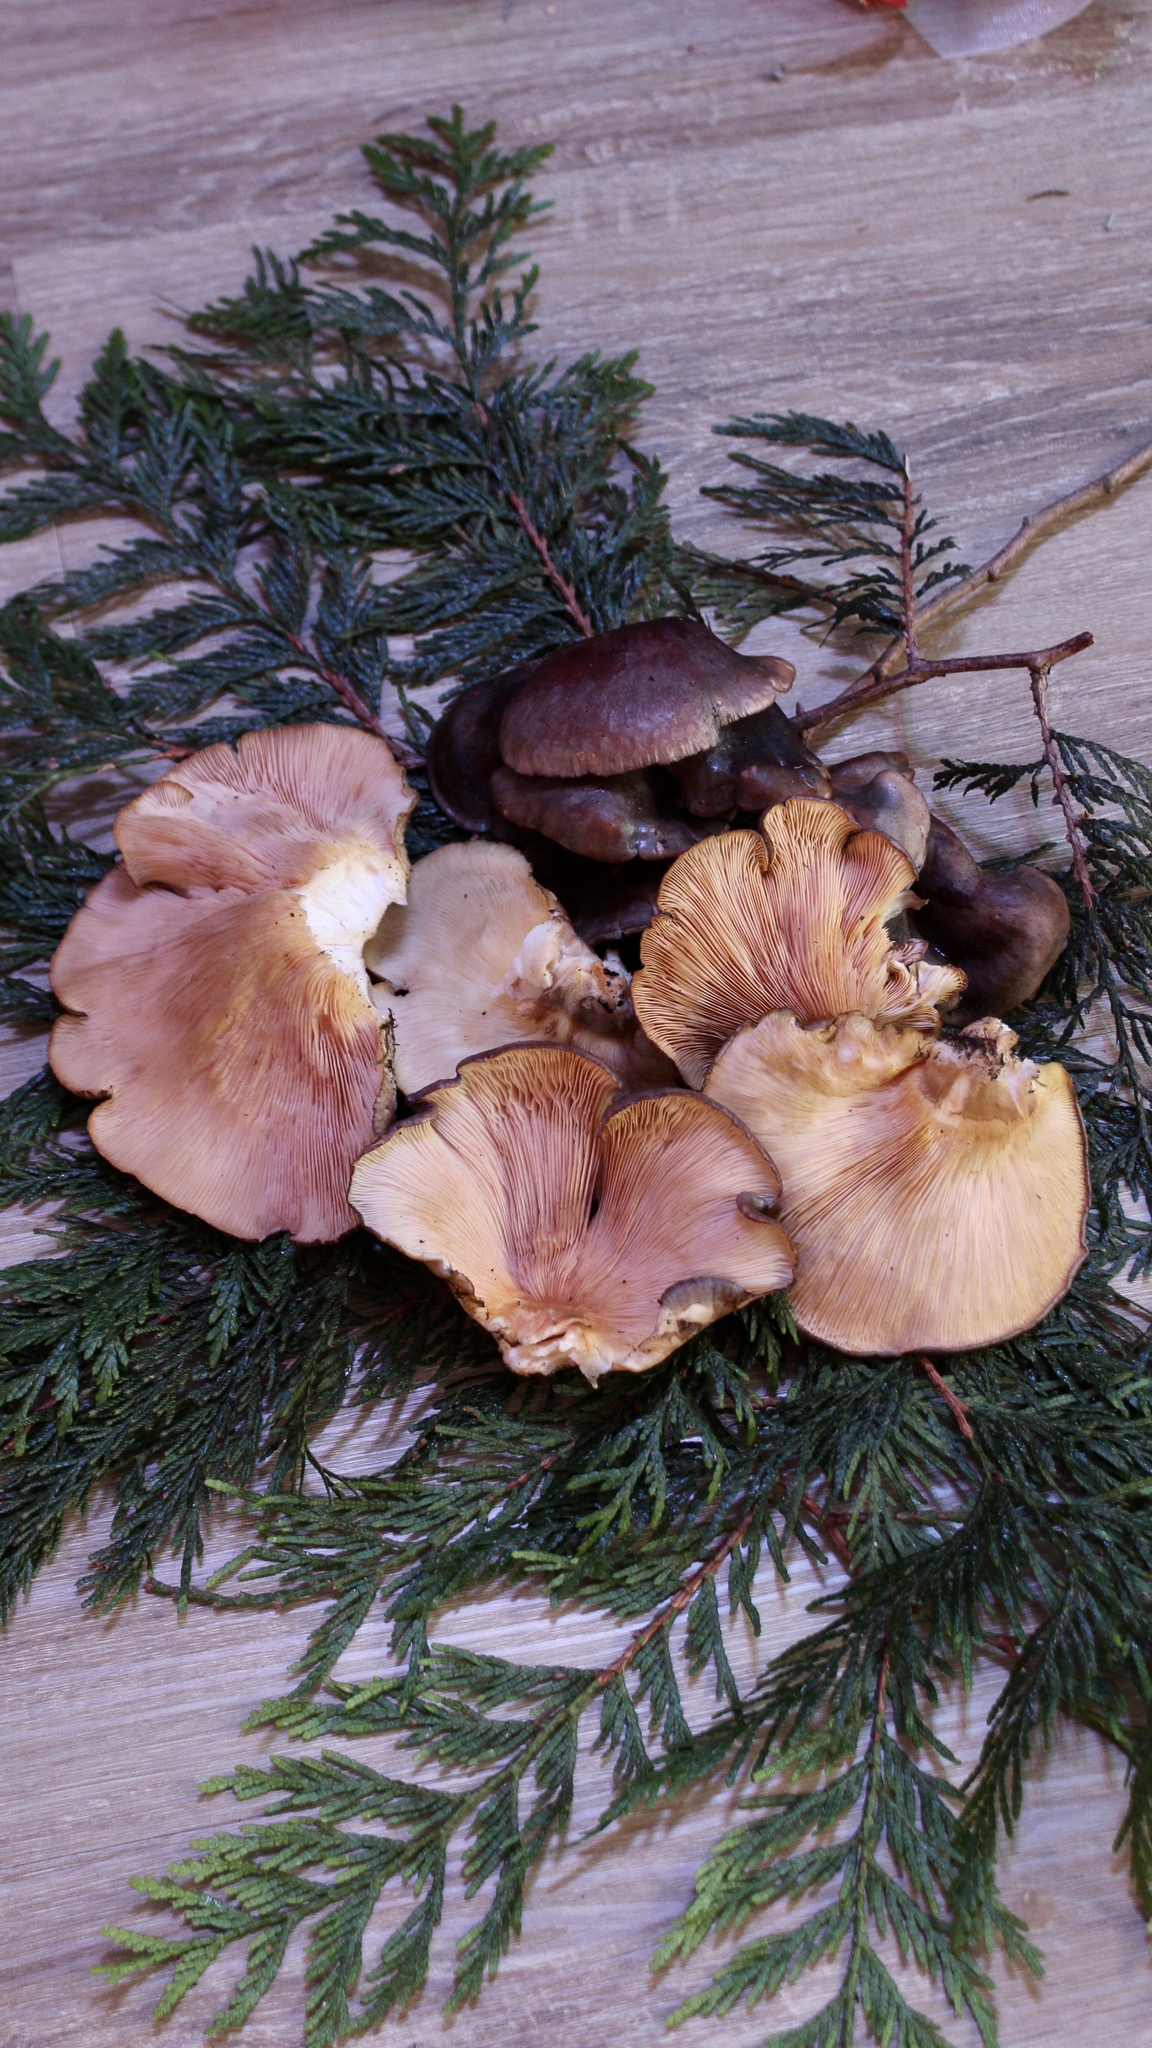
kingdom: Fungi
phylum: Basidiomycota
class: Agaricomycetes
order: Agaricales
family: Sarcomyxaceae
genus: Sarcomyxa
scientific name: Sarcomyxa serotina
